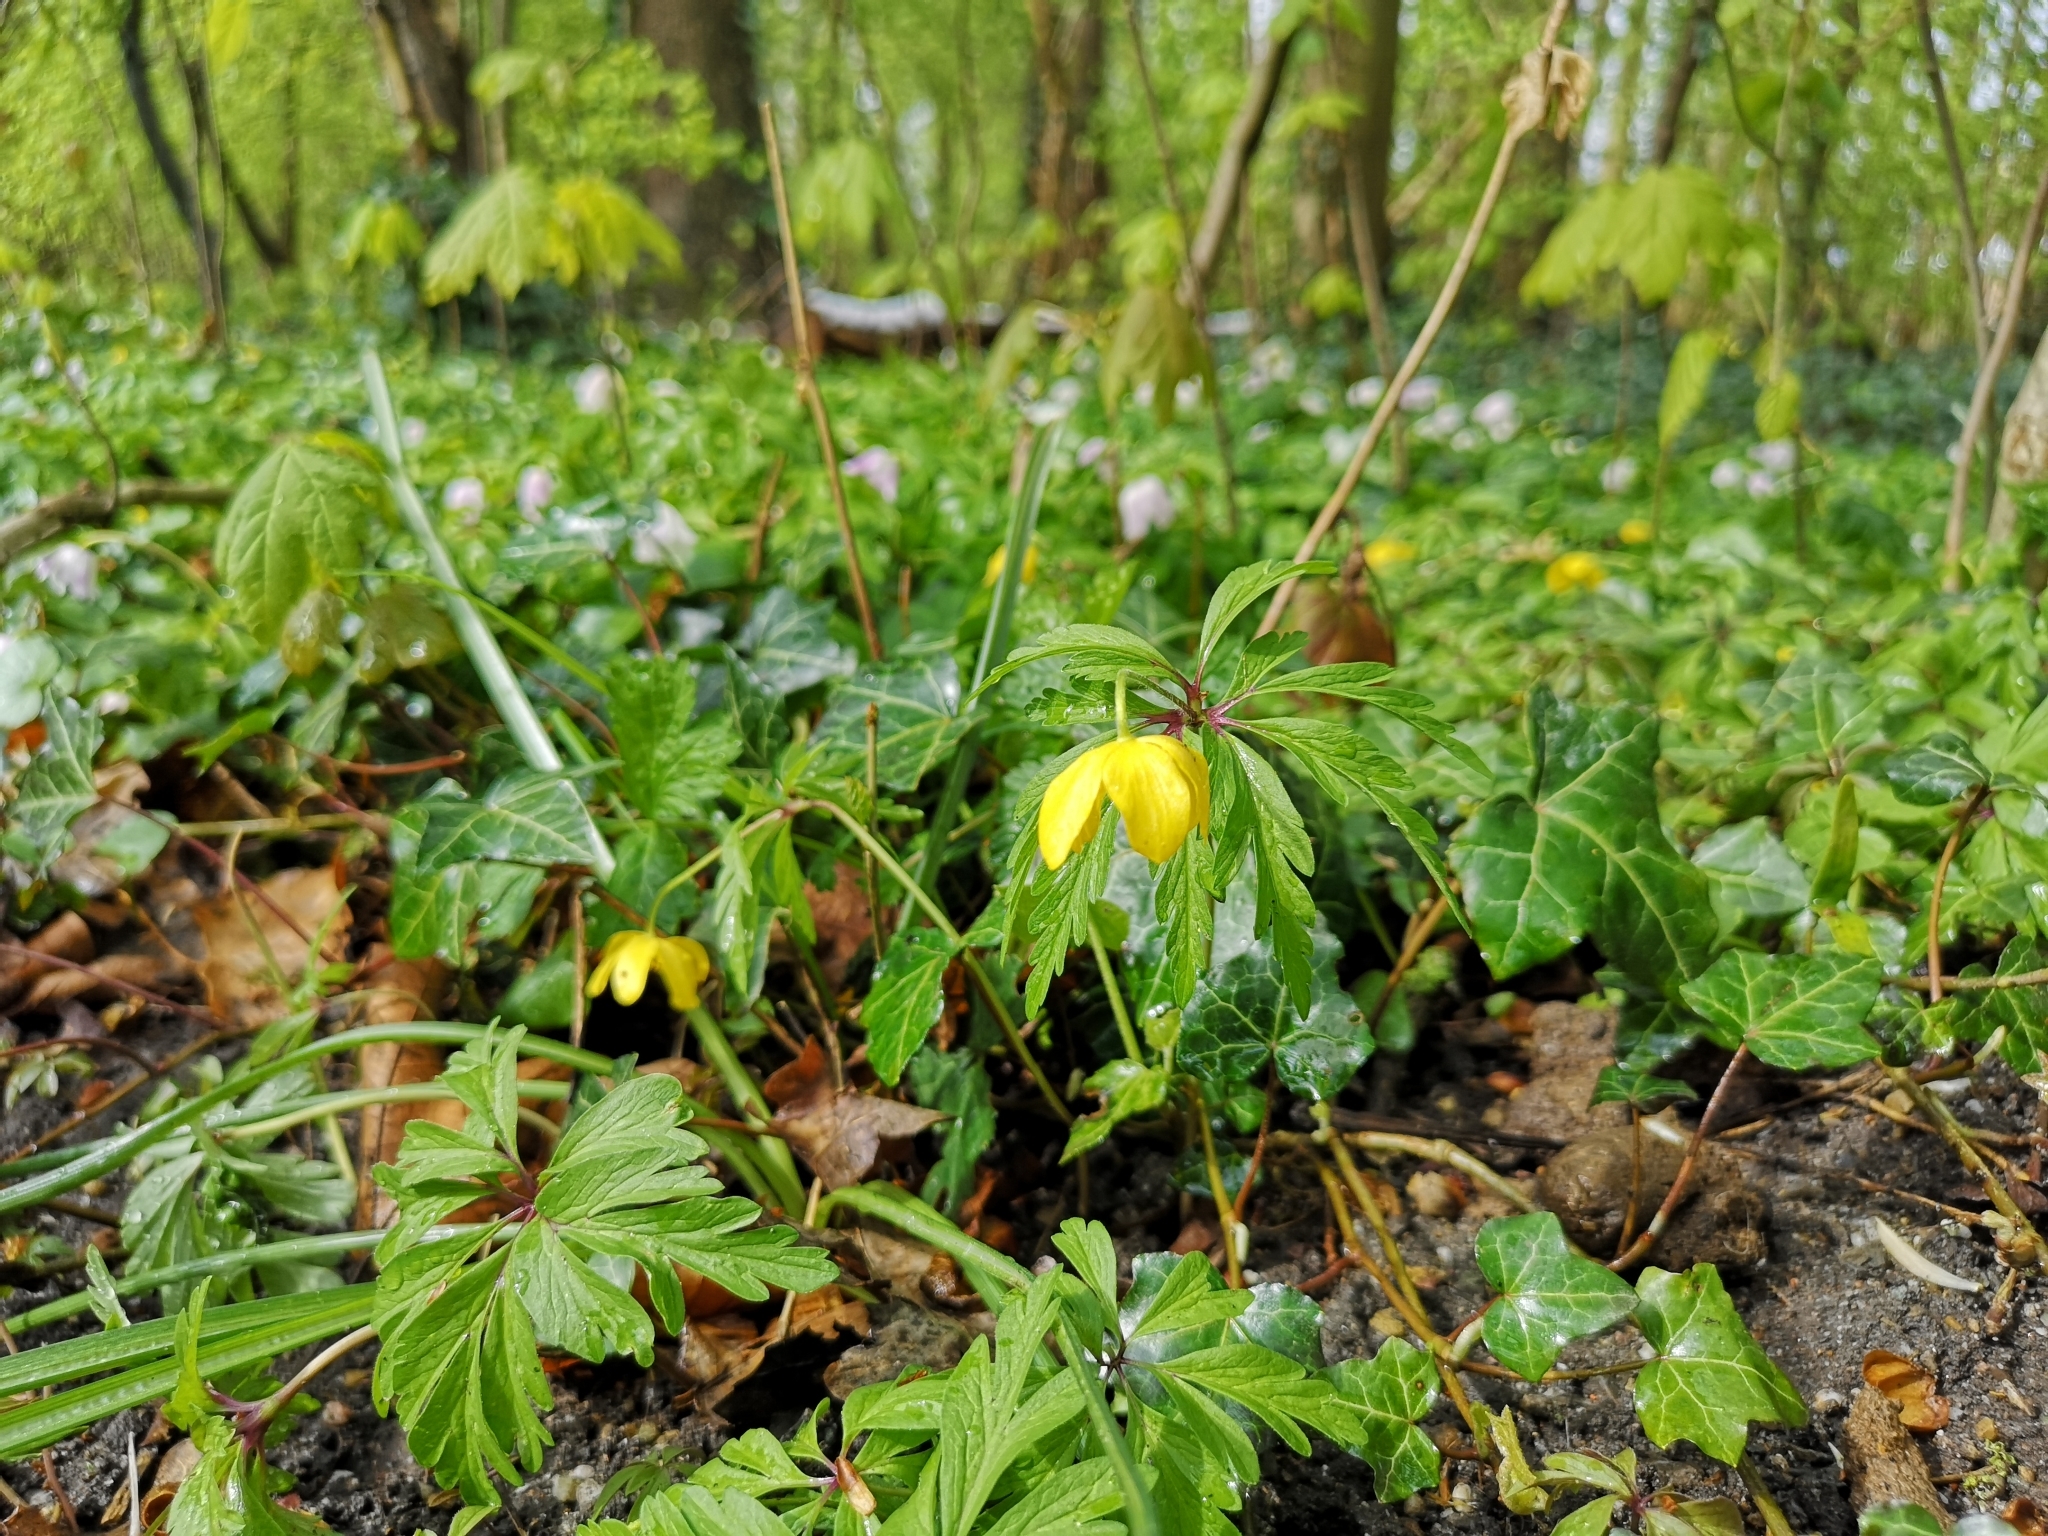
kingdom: Plantae
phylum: Tracheophyta
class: Magnoliopsida
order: Ranunculales
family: Ranunculaceae
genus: Anemone
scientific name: Anemone ranunculoides
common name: Yellow anemone
